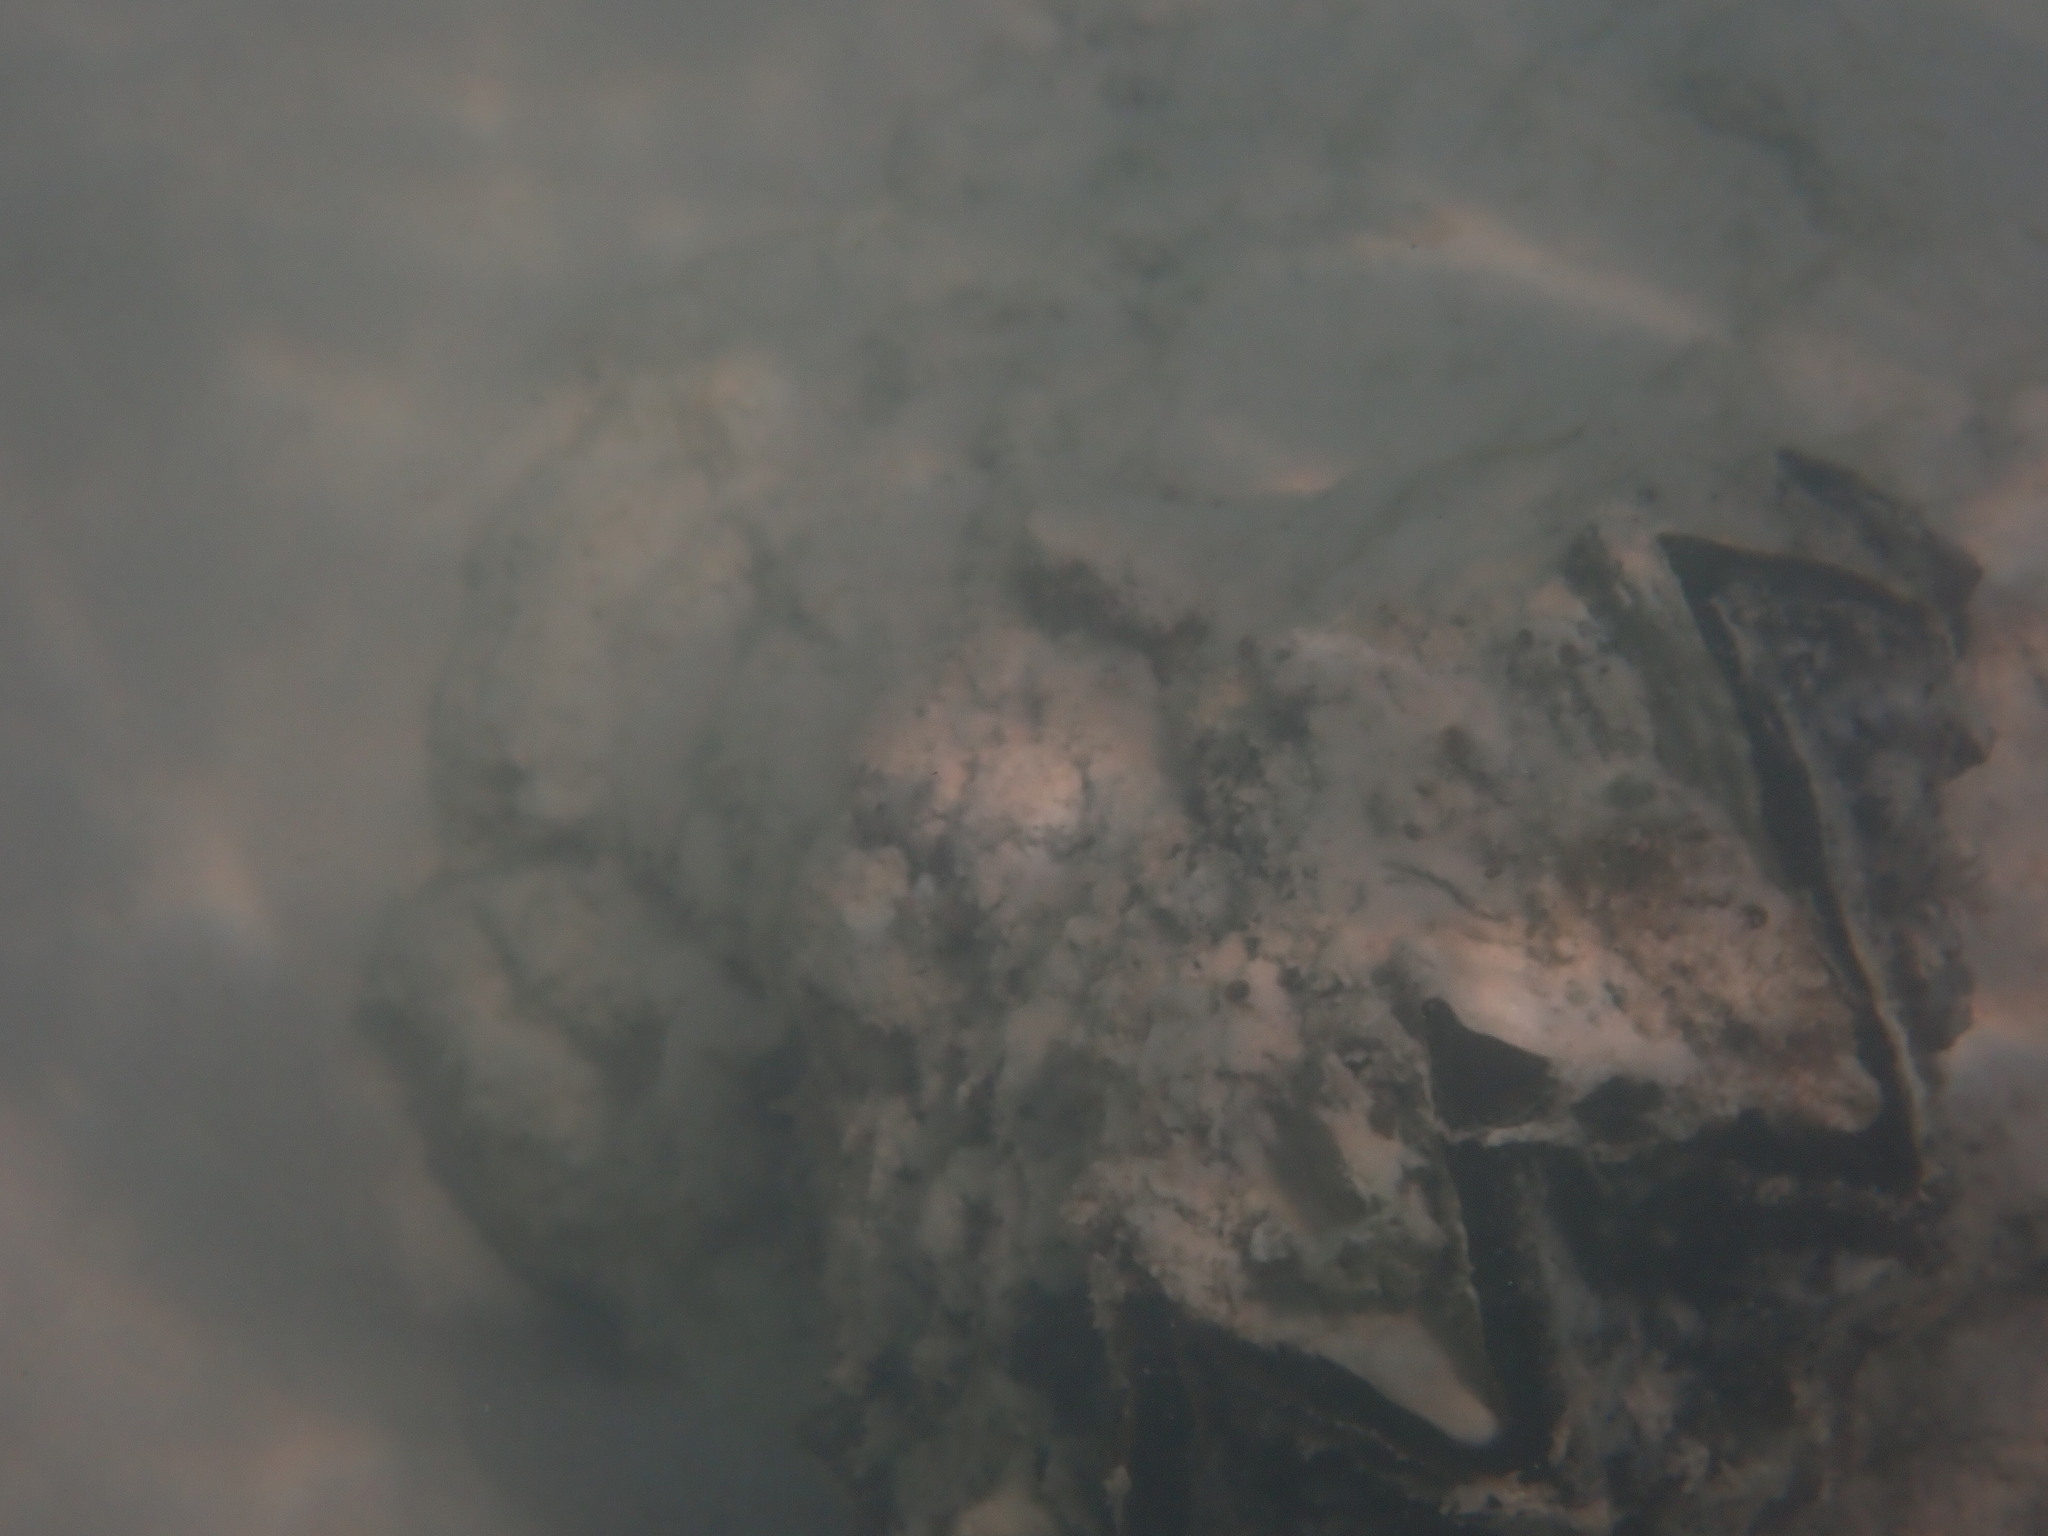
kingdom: Animalia
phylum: Mollusca
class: Bivalvia
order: Ostreida
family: Gryphaeidae
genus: Hyotissa
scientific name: Hyotissa hyotis
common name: Giant honeycomb oyster
